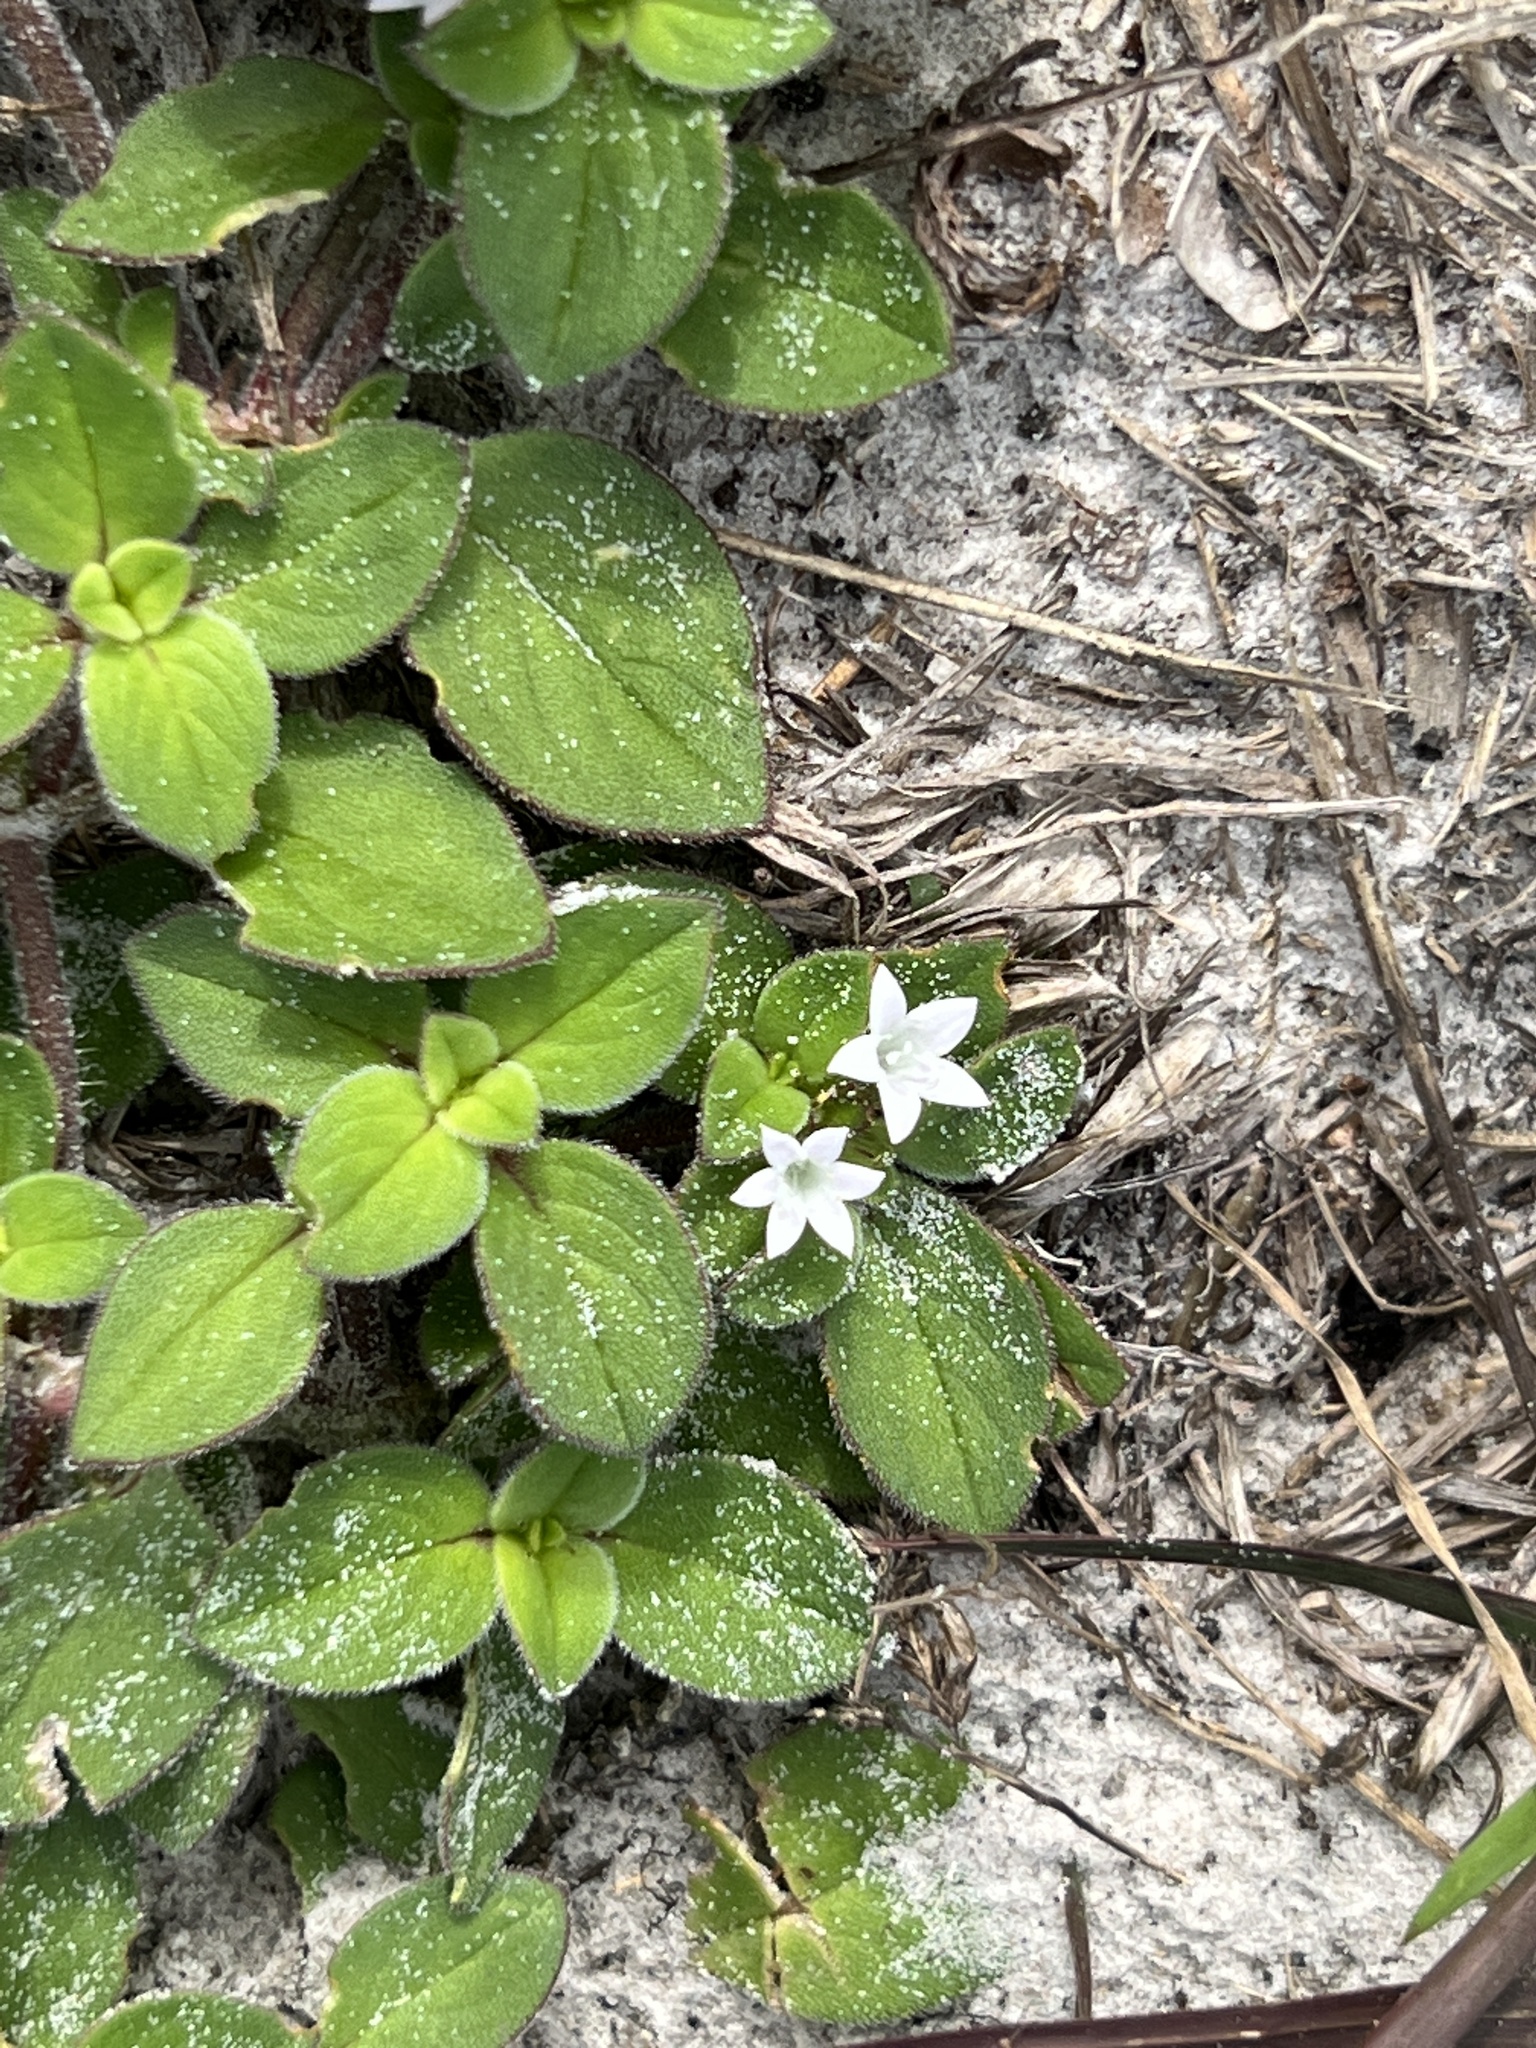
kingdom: Plantae
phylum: Tracheophyta
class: Magnoliopsida
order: Gentianales
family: Rubiaceae
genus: Richardia
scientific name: Richardia brasiliensis
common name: Tropical mexican clover
